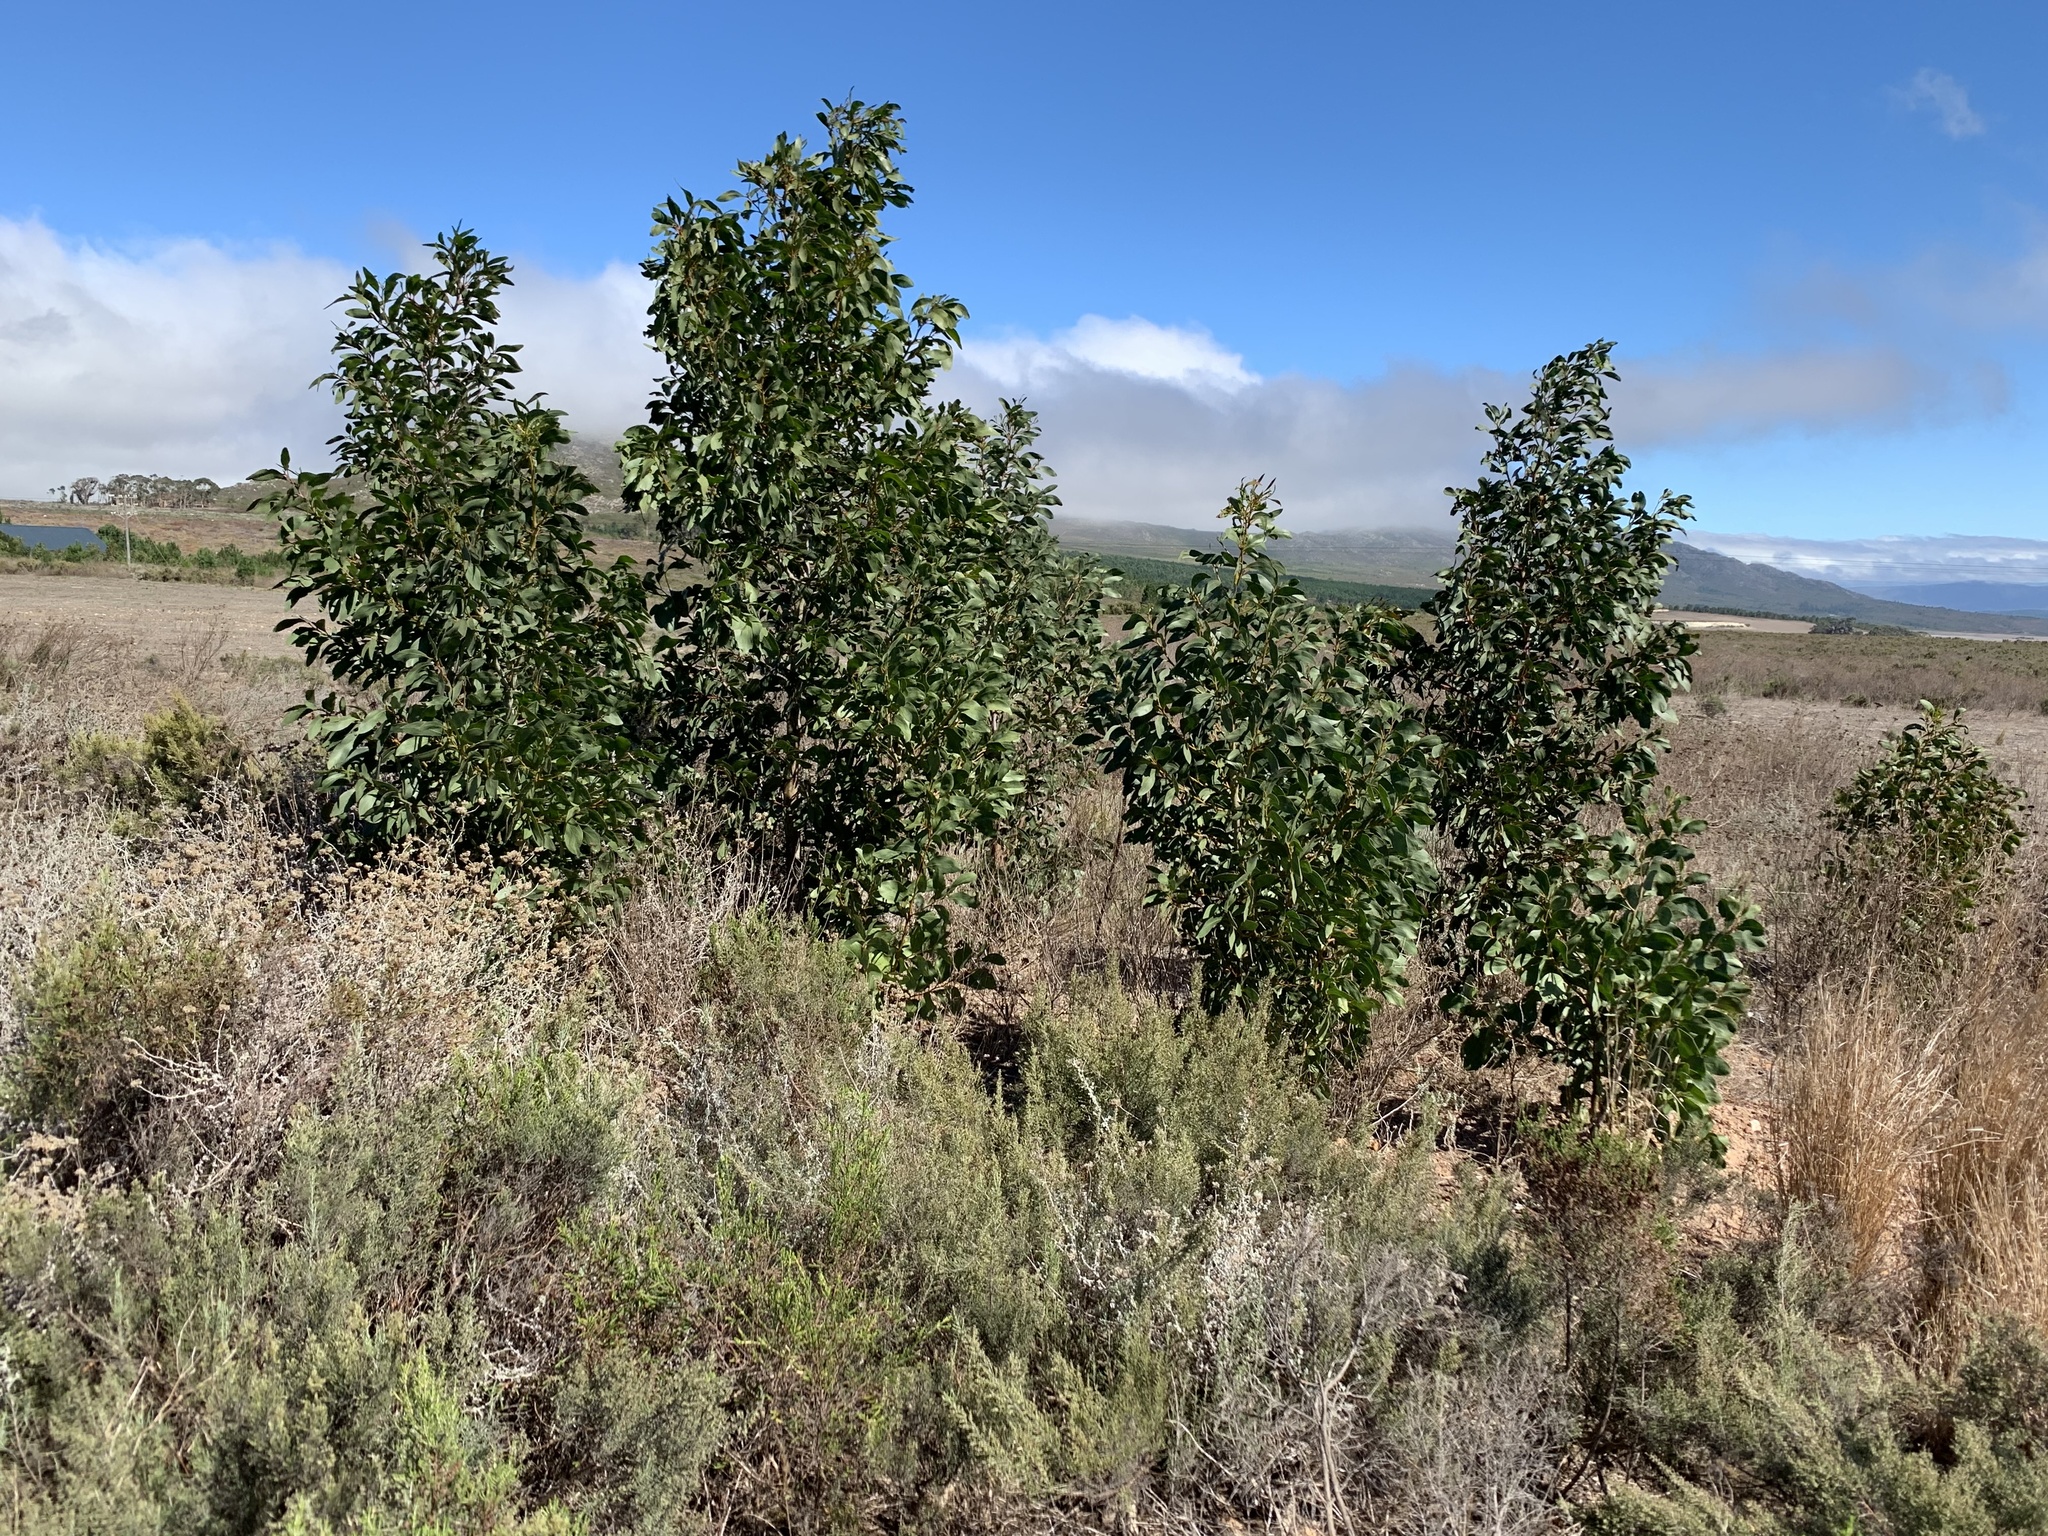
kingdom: Plantae
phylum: Tracheophyta
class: Magnoliopsida
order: Fabales
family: Fabaceae
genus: Acacia
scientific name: Acacia pycnantha
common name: Golden wattle
